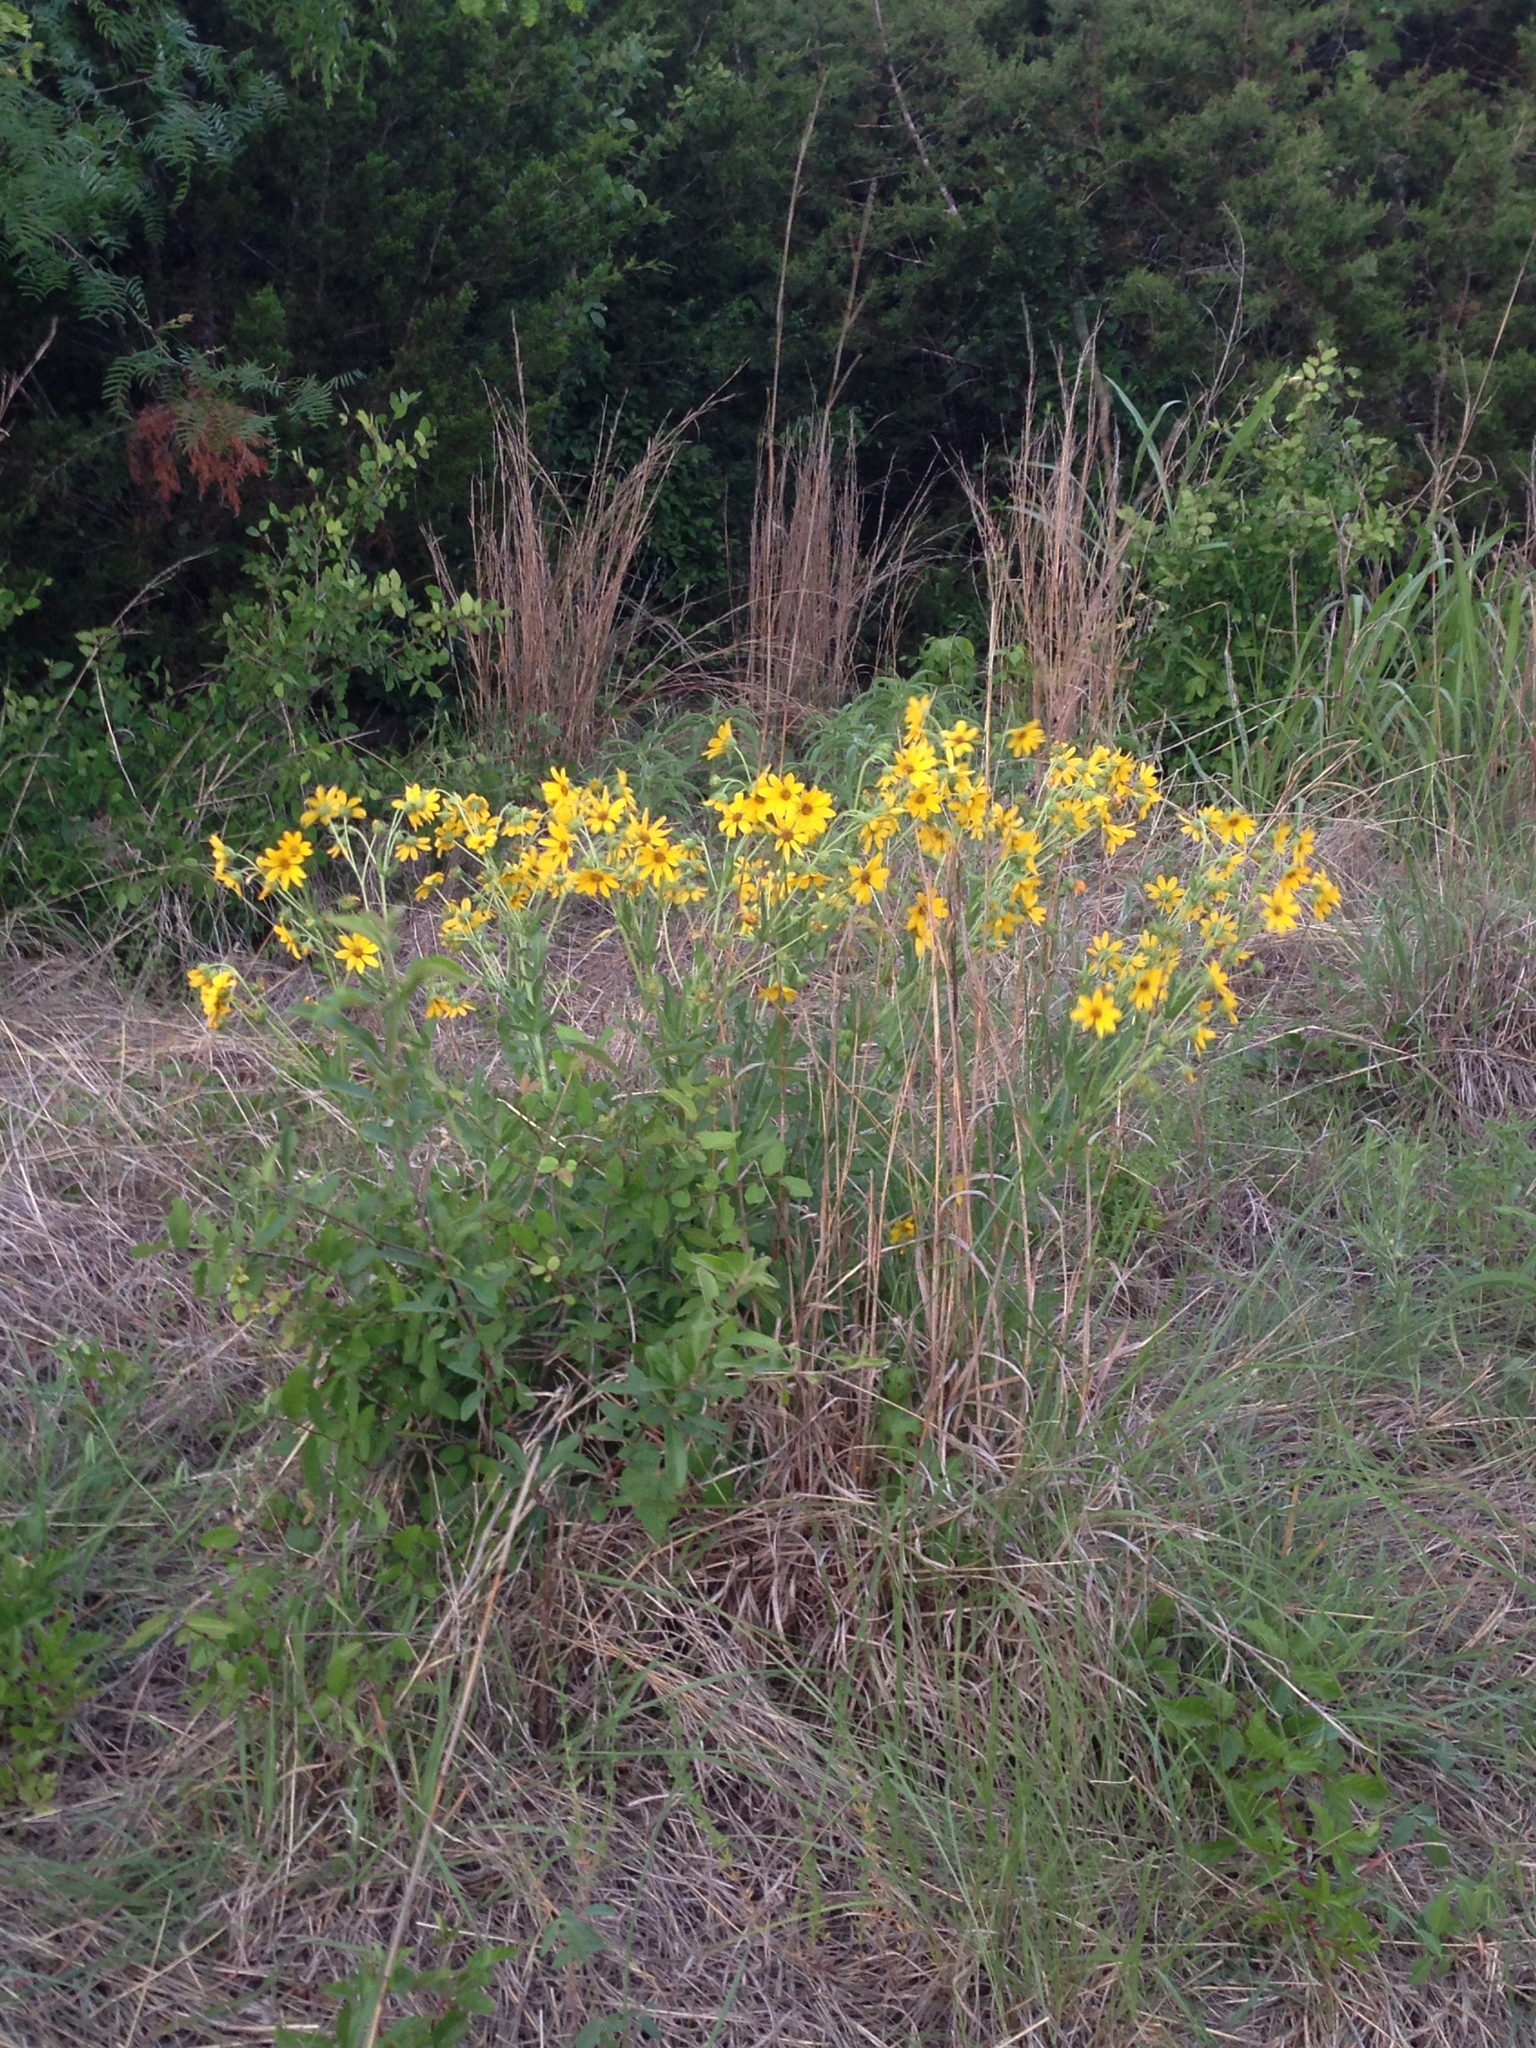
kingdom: Plantae
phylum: Tracheophyta
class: Magnoliopsida
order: Asterales
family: Asteraceae
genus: Engelmannia
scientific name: Engelmannia peristenia
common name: Engelmann's daisy
